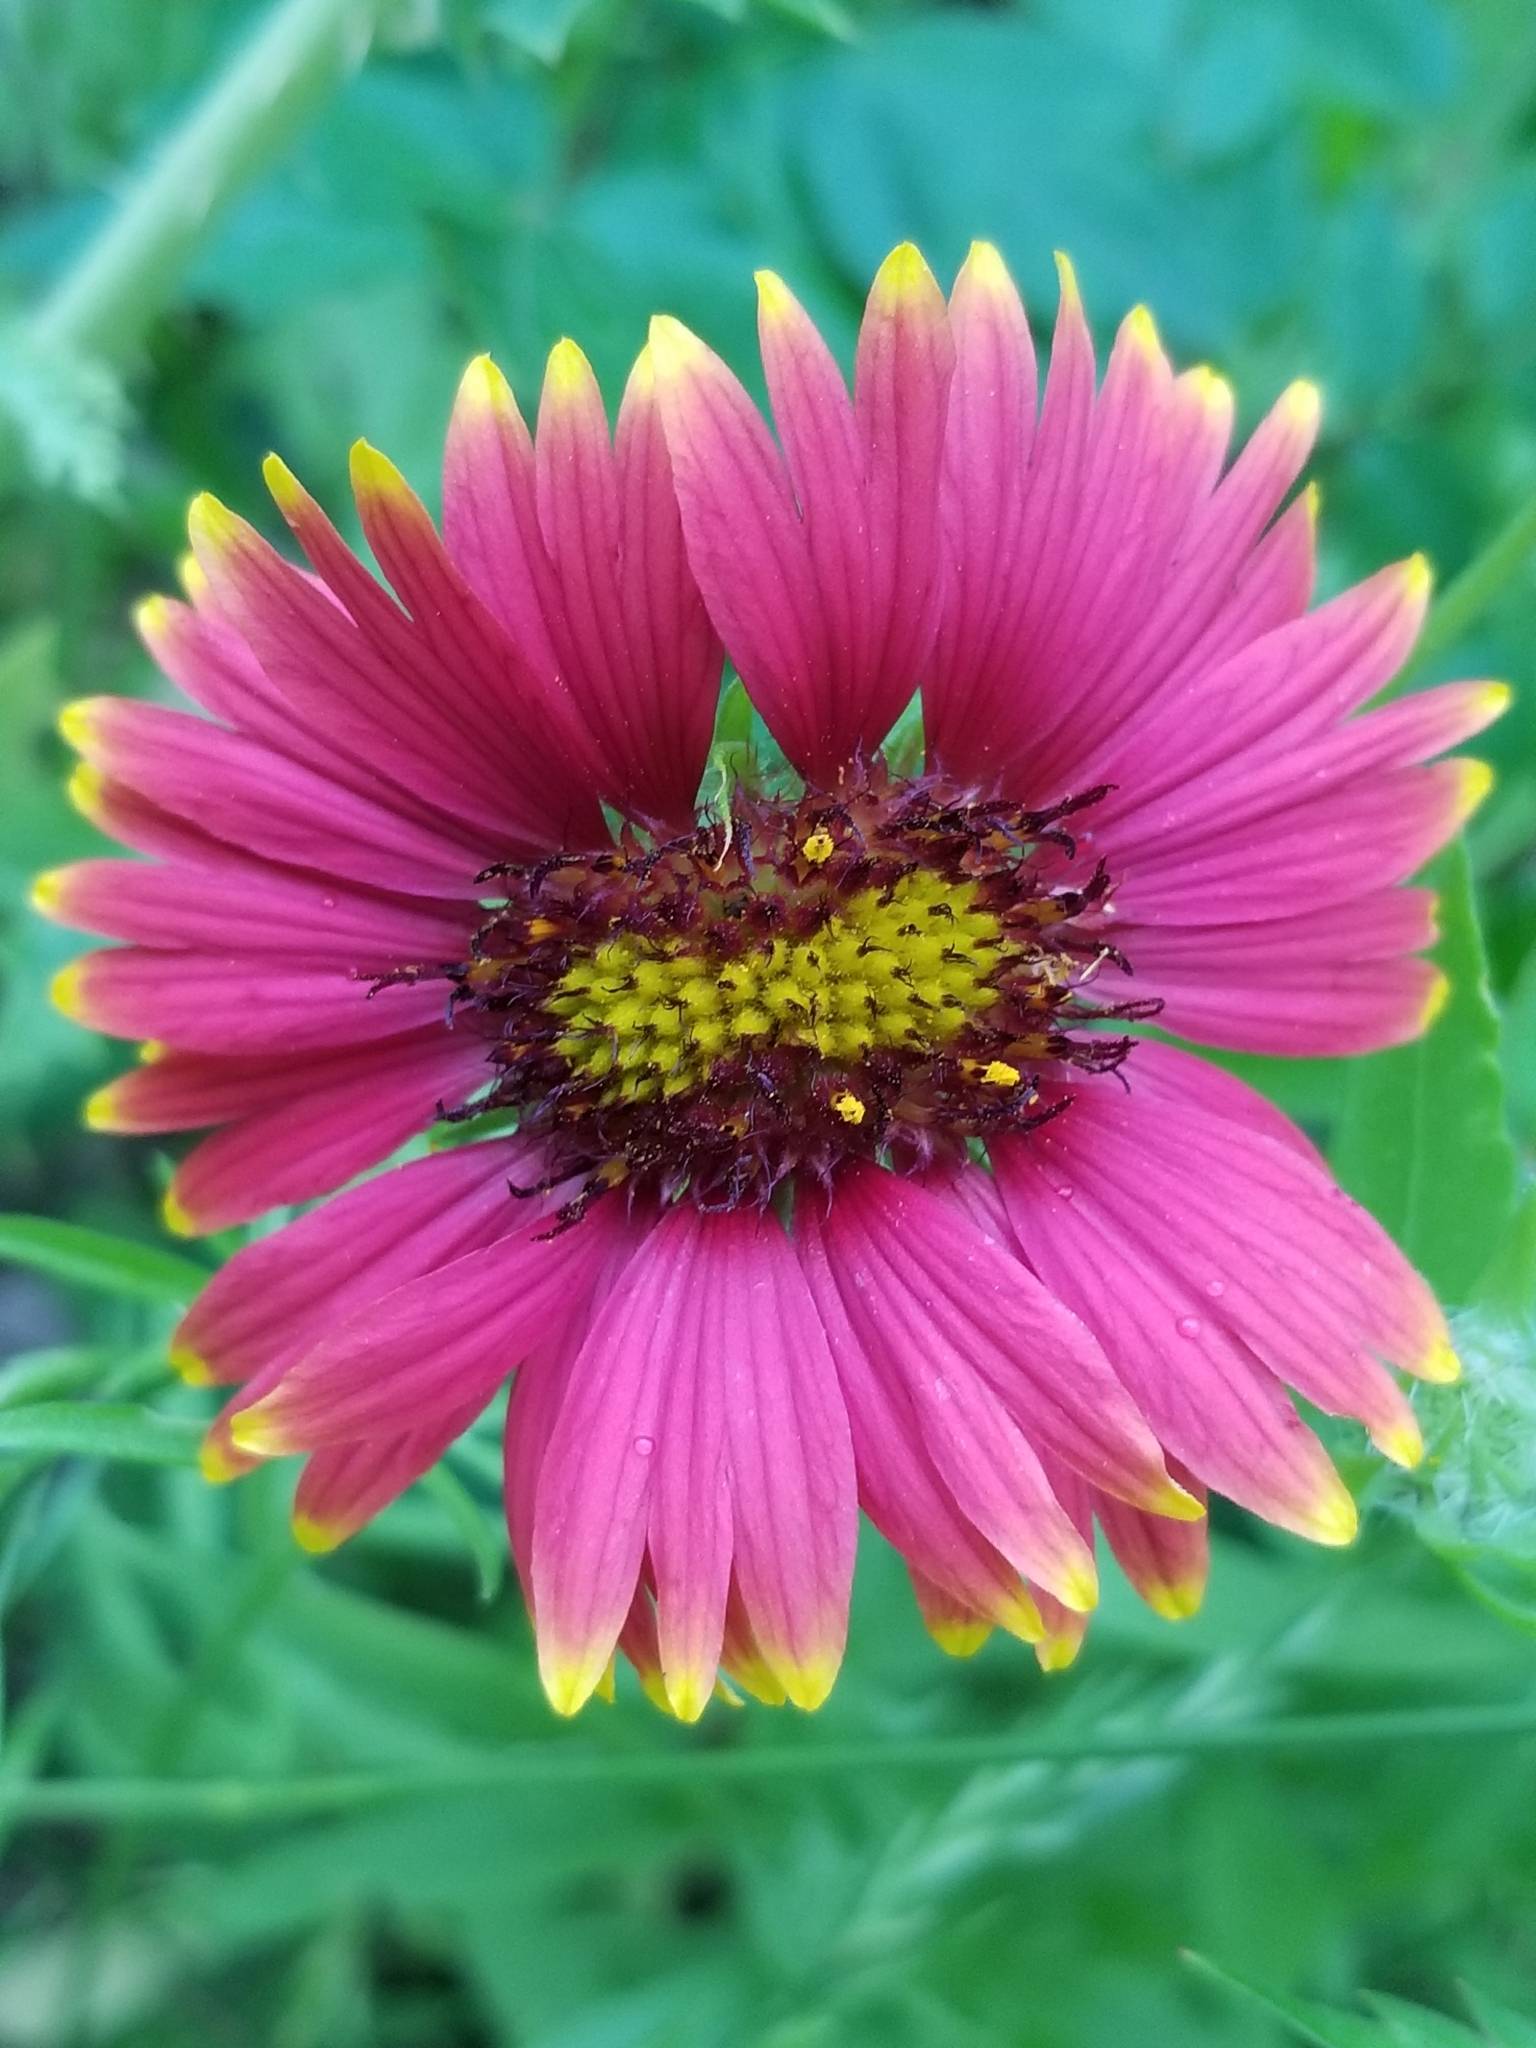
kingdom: Plantae
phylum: Tracheophyta
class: Magnoliopsida
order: Asterales
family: Asteraceae
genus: Gaillardia
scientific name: Gaillardia pulchella
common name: Firewheel
